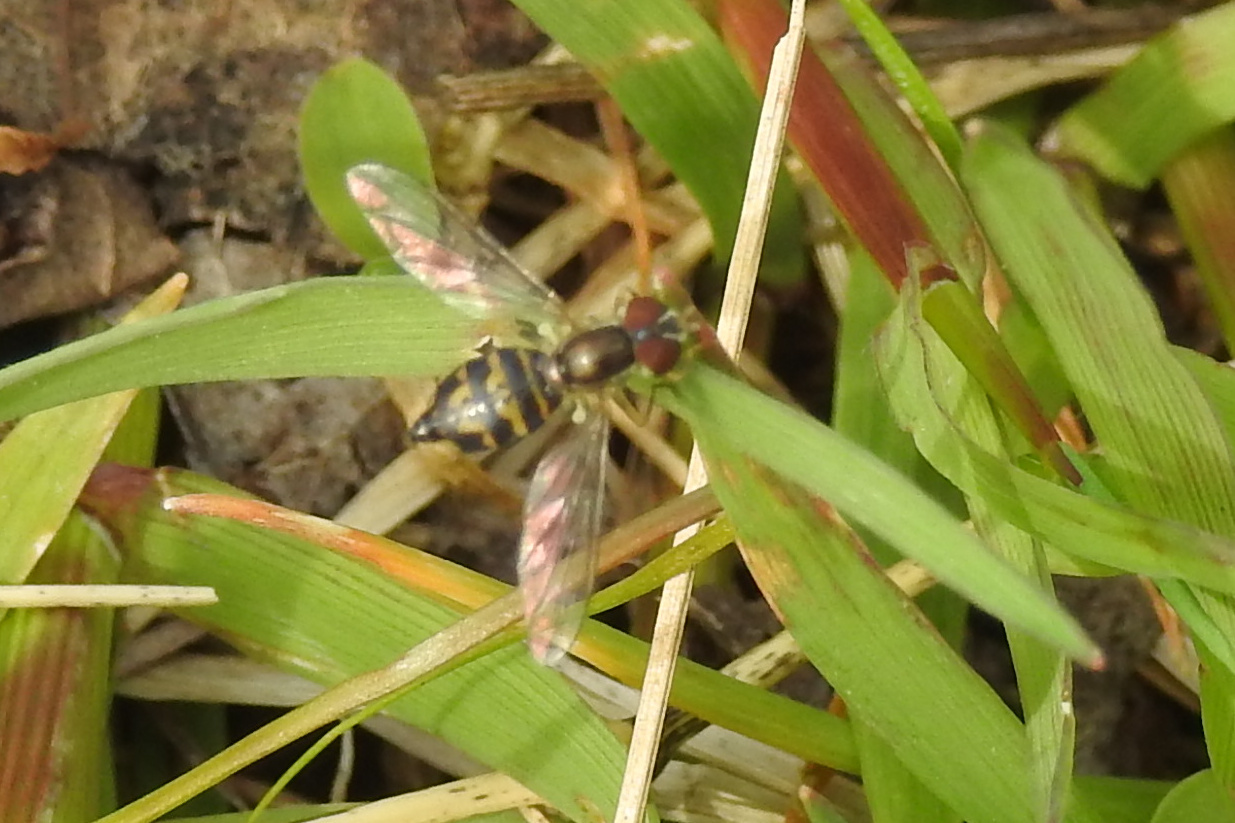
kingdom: Animalia
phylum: Arthropoda
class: Insecta
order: Diptera
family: Syrphidae
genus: Toxomerus
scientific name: Toxomerus geminatus
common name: Eastern calligrapher
